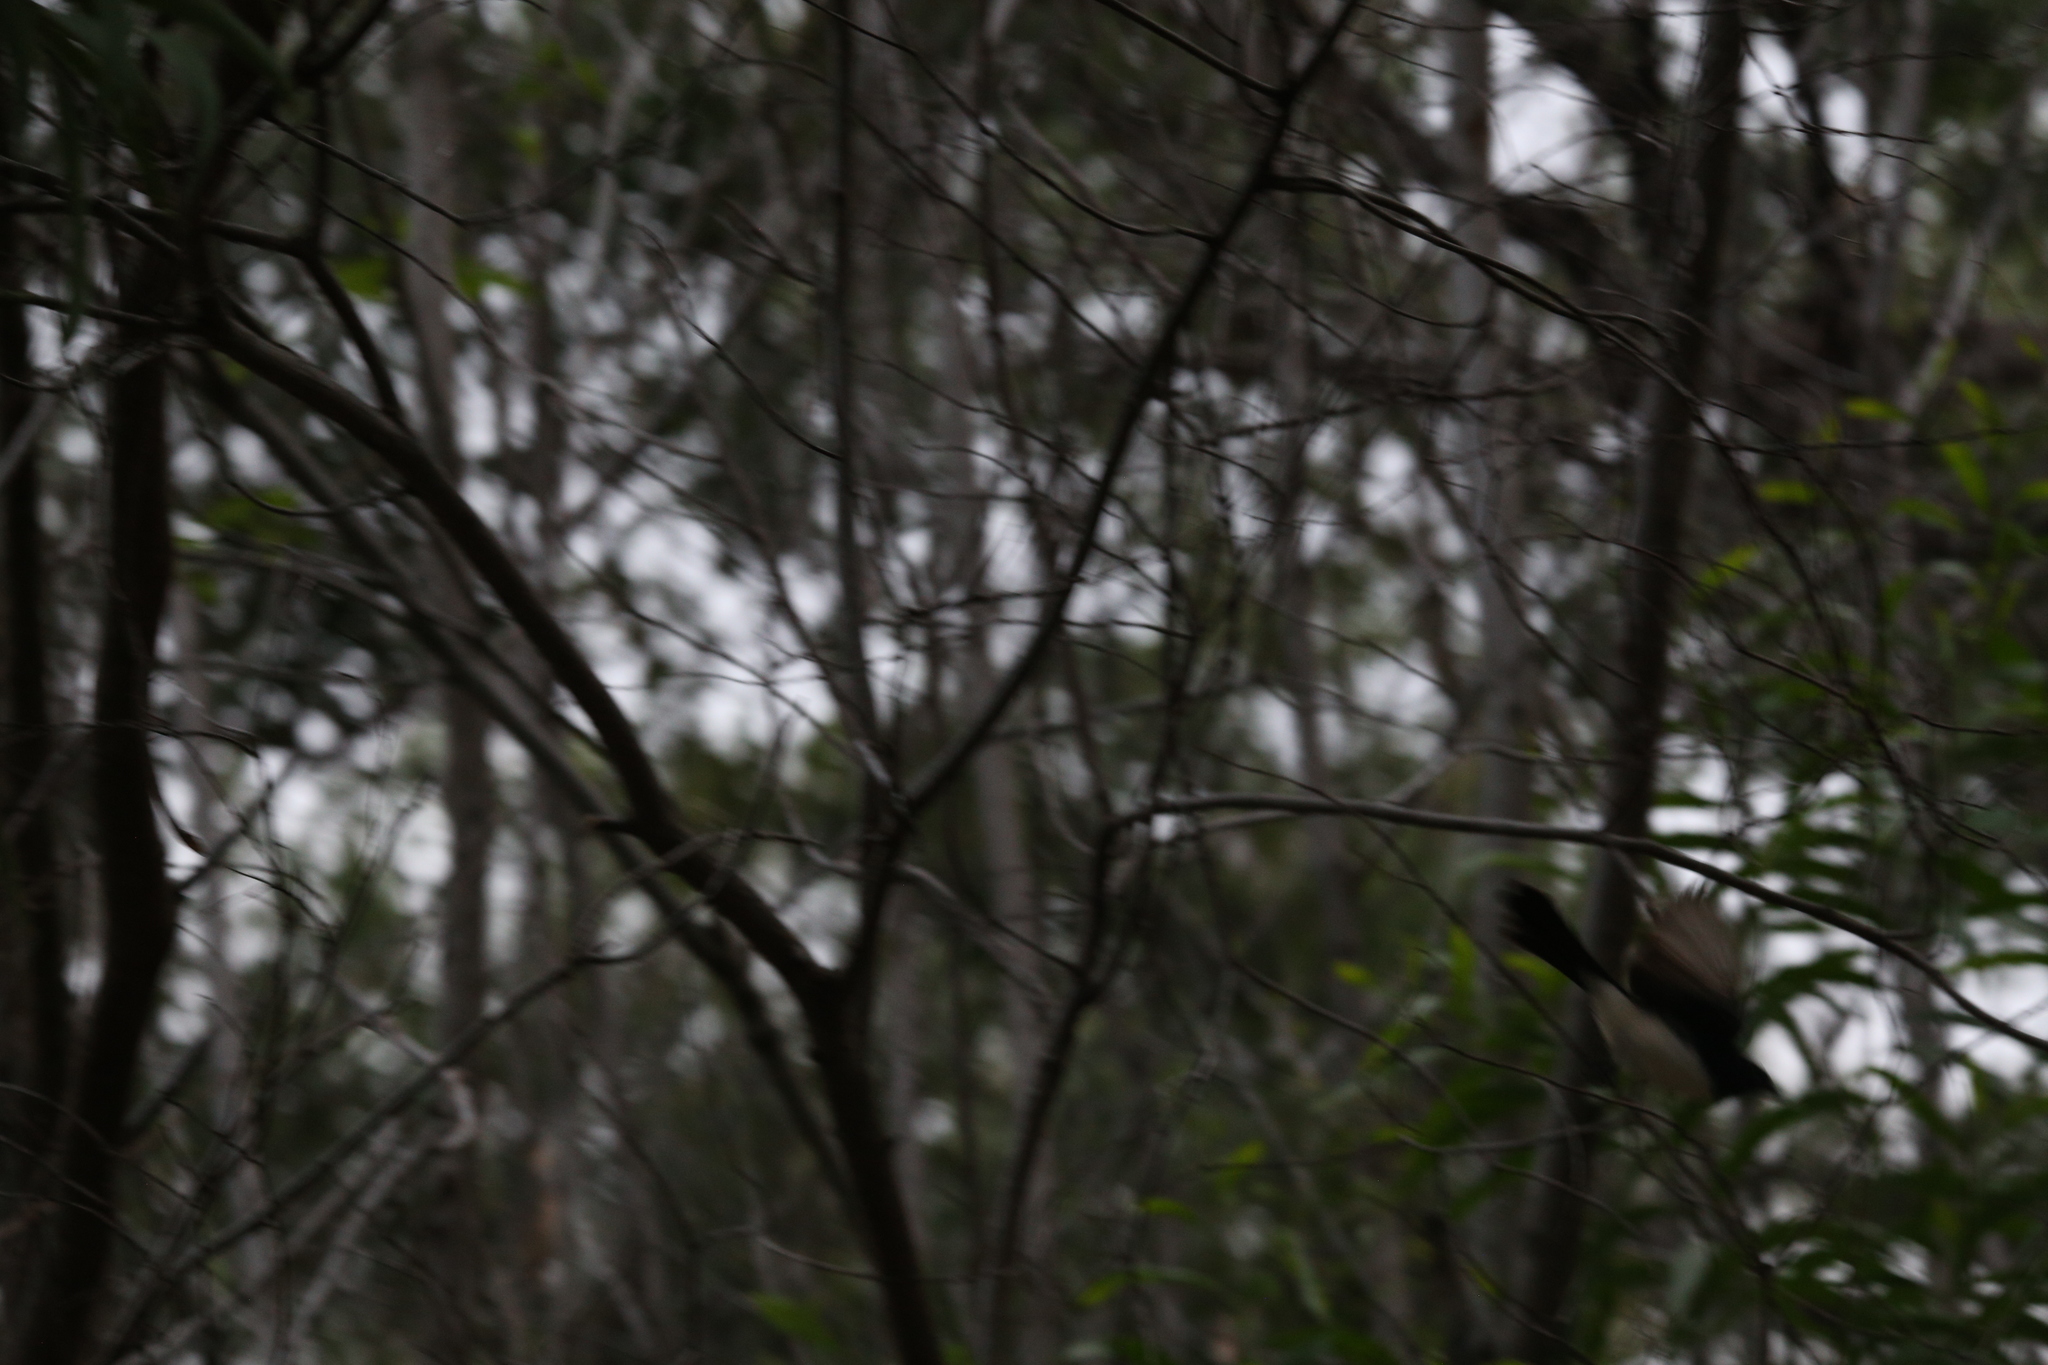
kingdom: Animalia
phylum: Chordata
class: Aves
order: Passeriformes
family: Rhipiduridae
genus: Rhipidura
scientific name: Rhipidura leucophrys
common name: Willie wagtail
